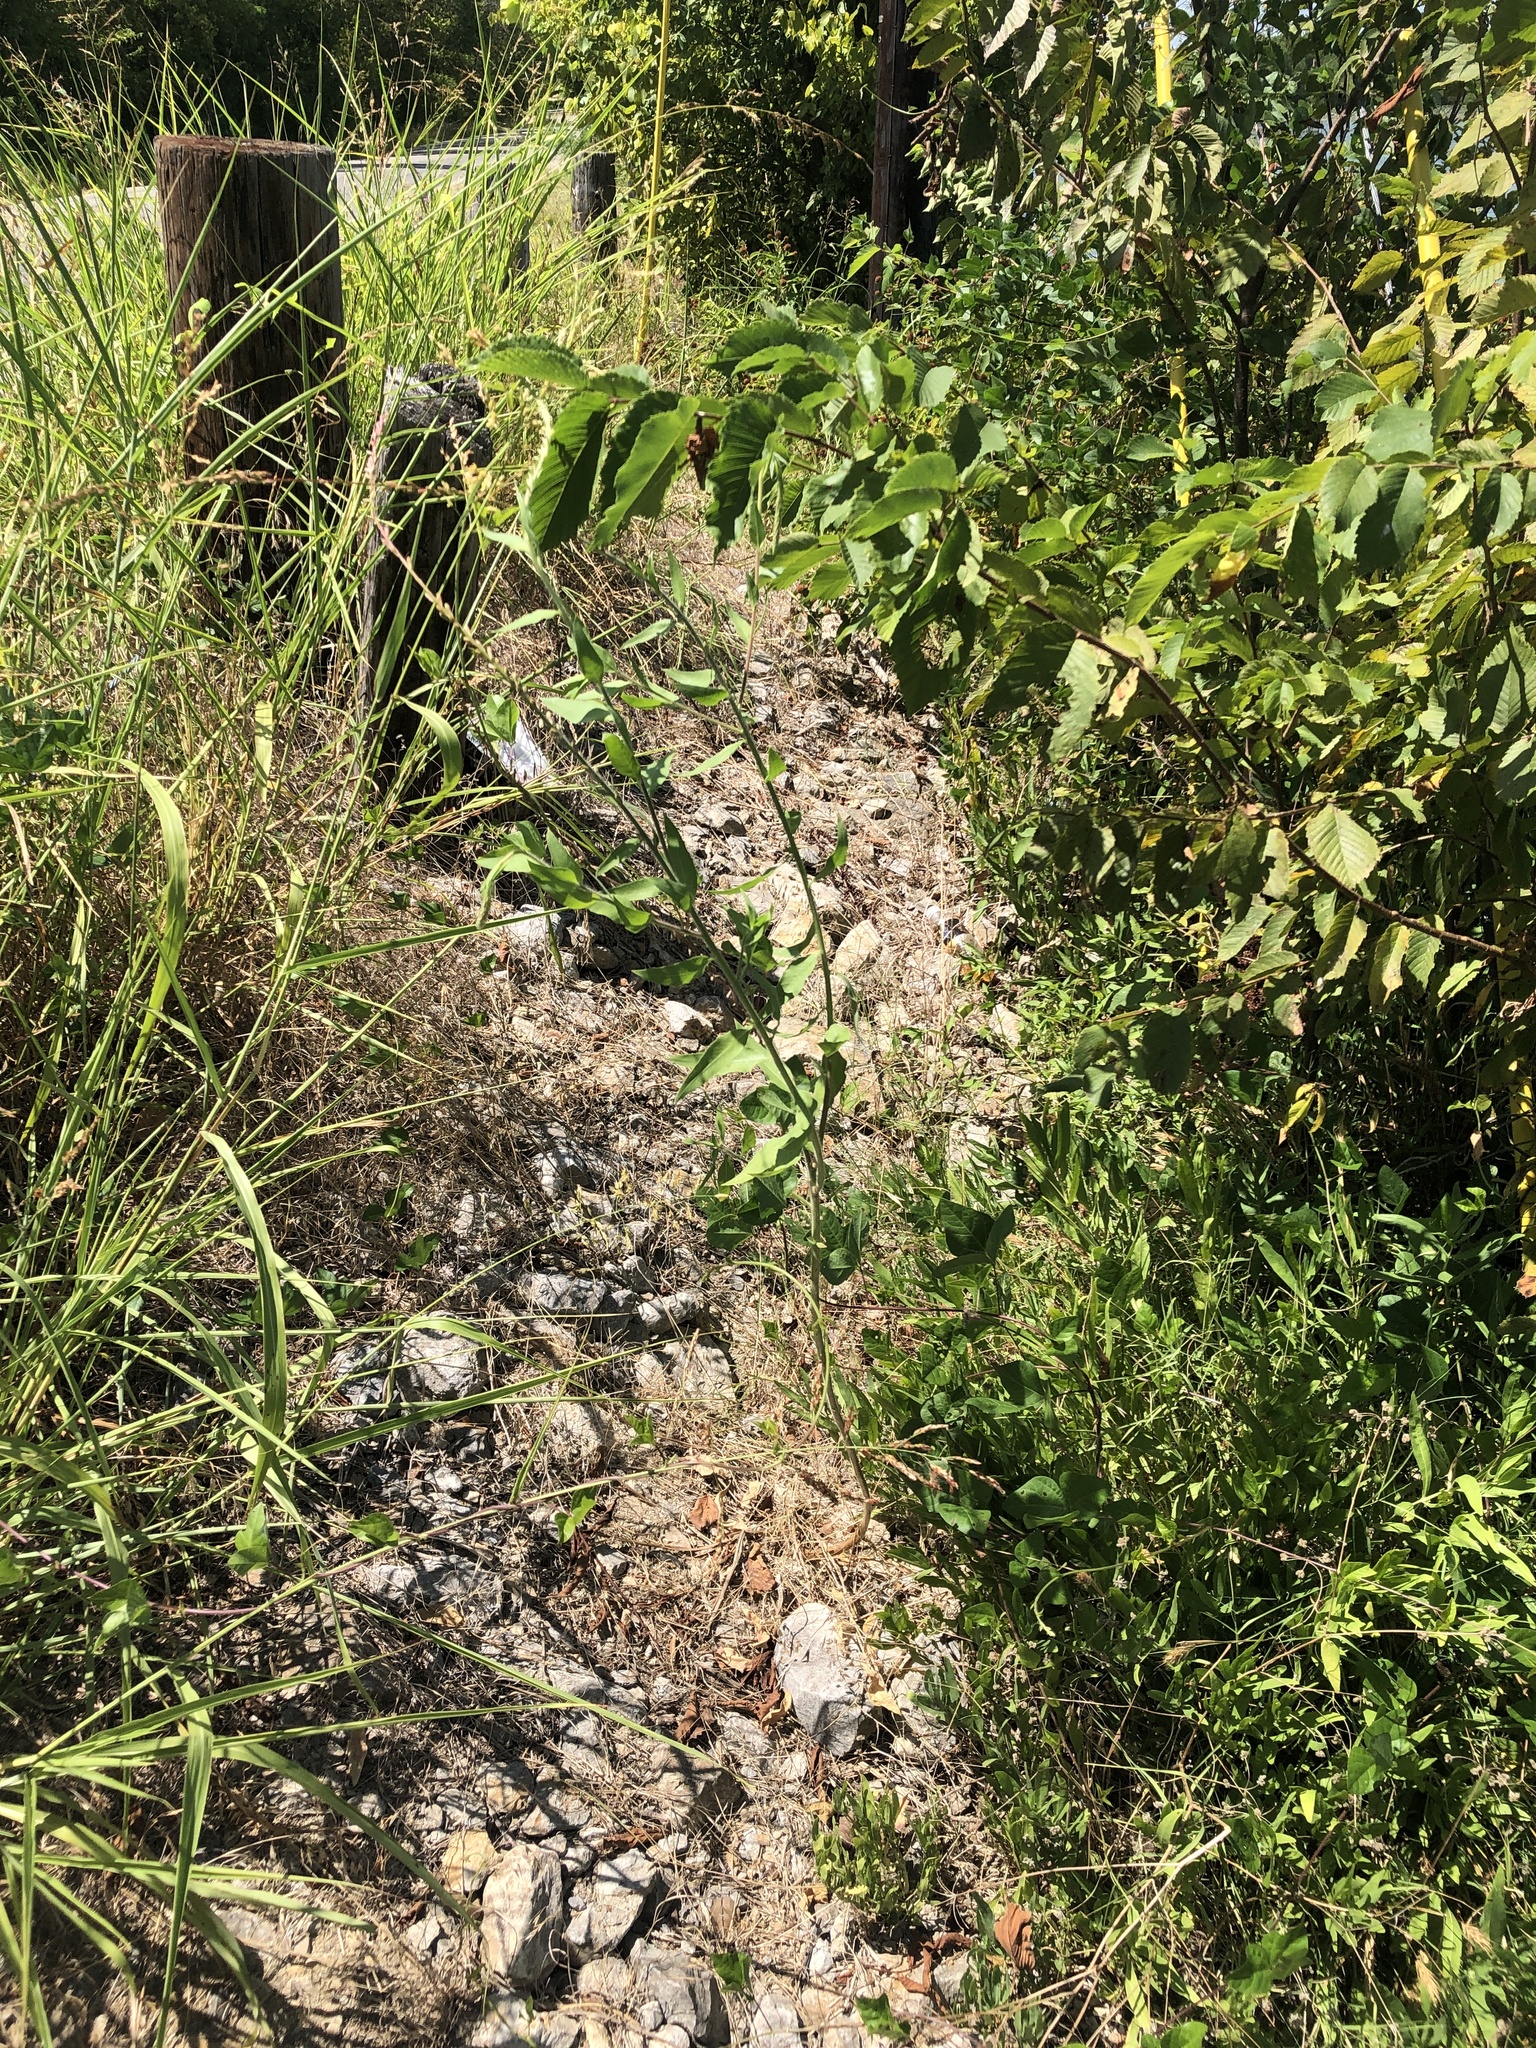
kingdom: Plantae
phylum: Tracheophyta
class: Magnoliopsida
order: Myrtales
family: Onagraceae
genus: Oenothera
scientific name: Oenothera curtiflora
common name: Velvetweed
